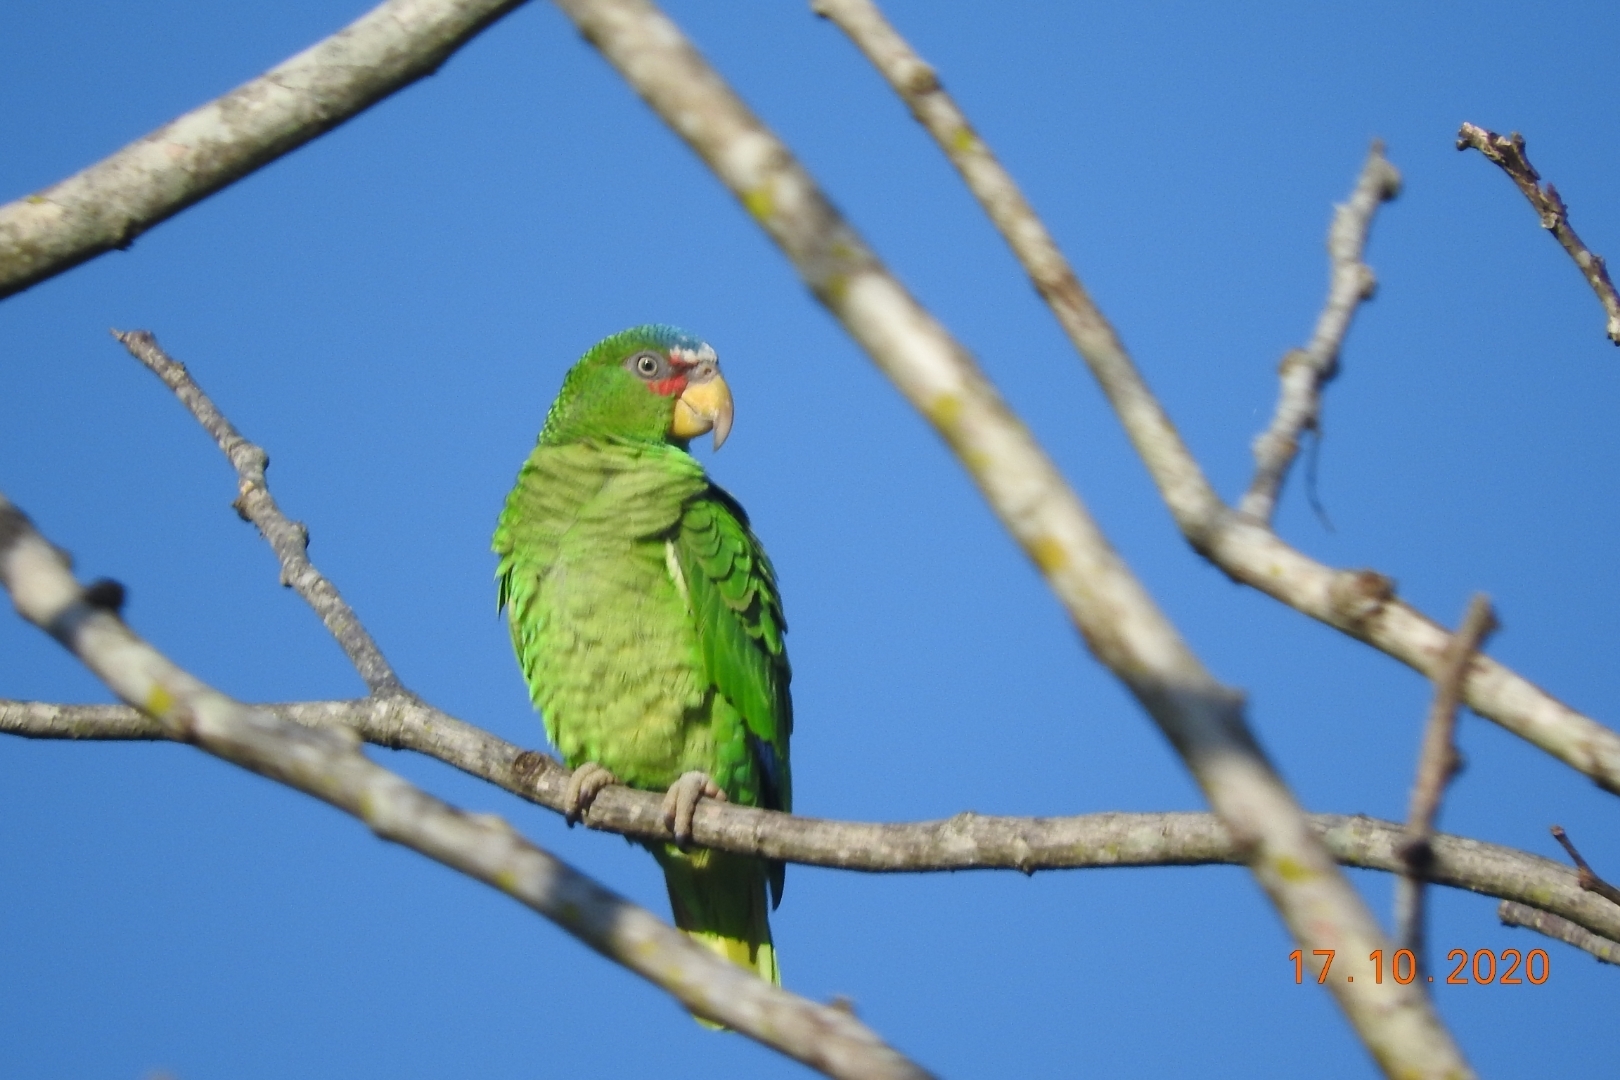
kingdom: Animalia
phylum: Chordata
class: Aves
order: Psittaciformes
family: Psittacidae
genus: Amazona
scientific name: Amazona albifrons
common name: White-fronted amazon
